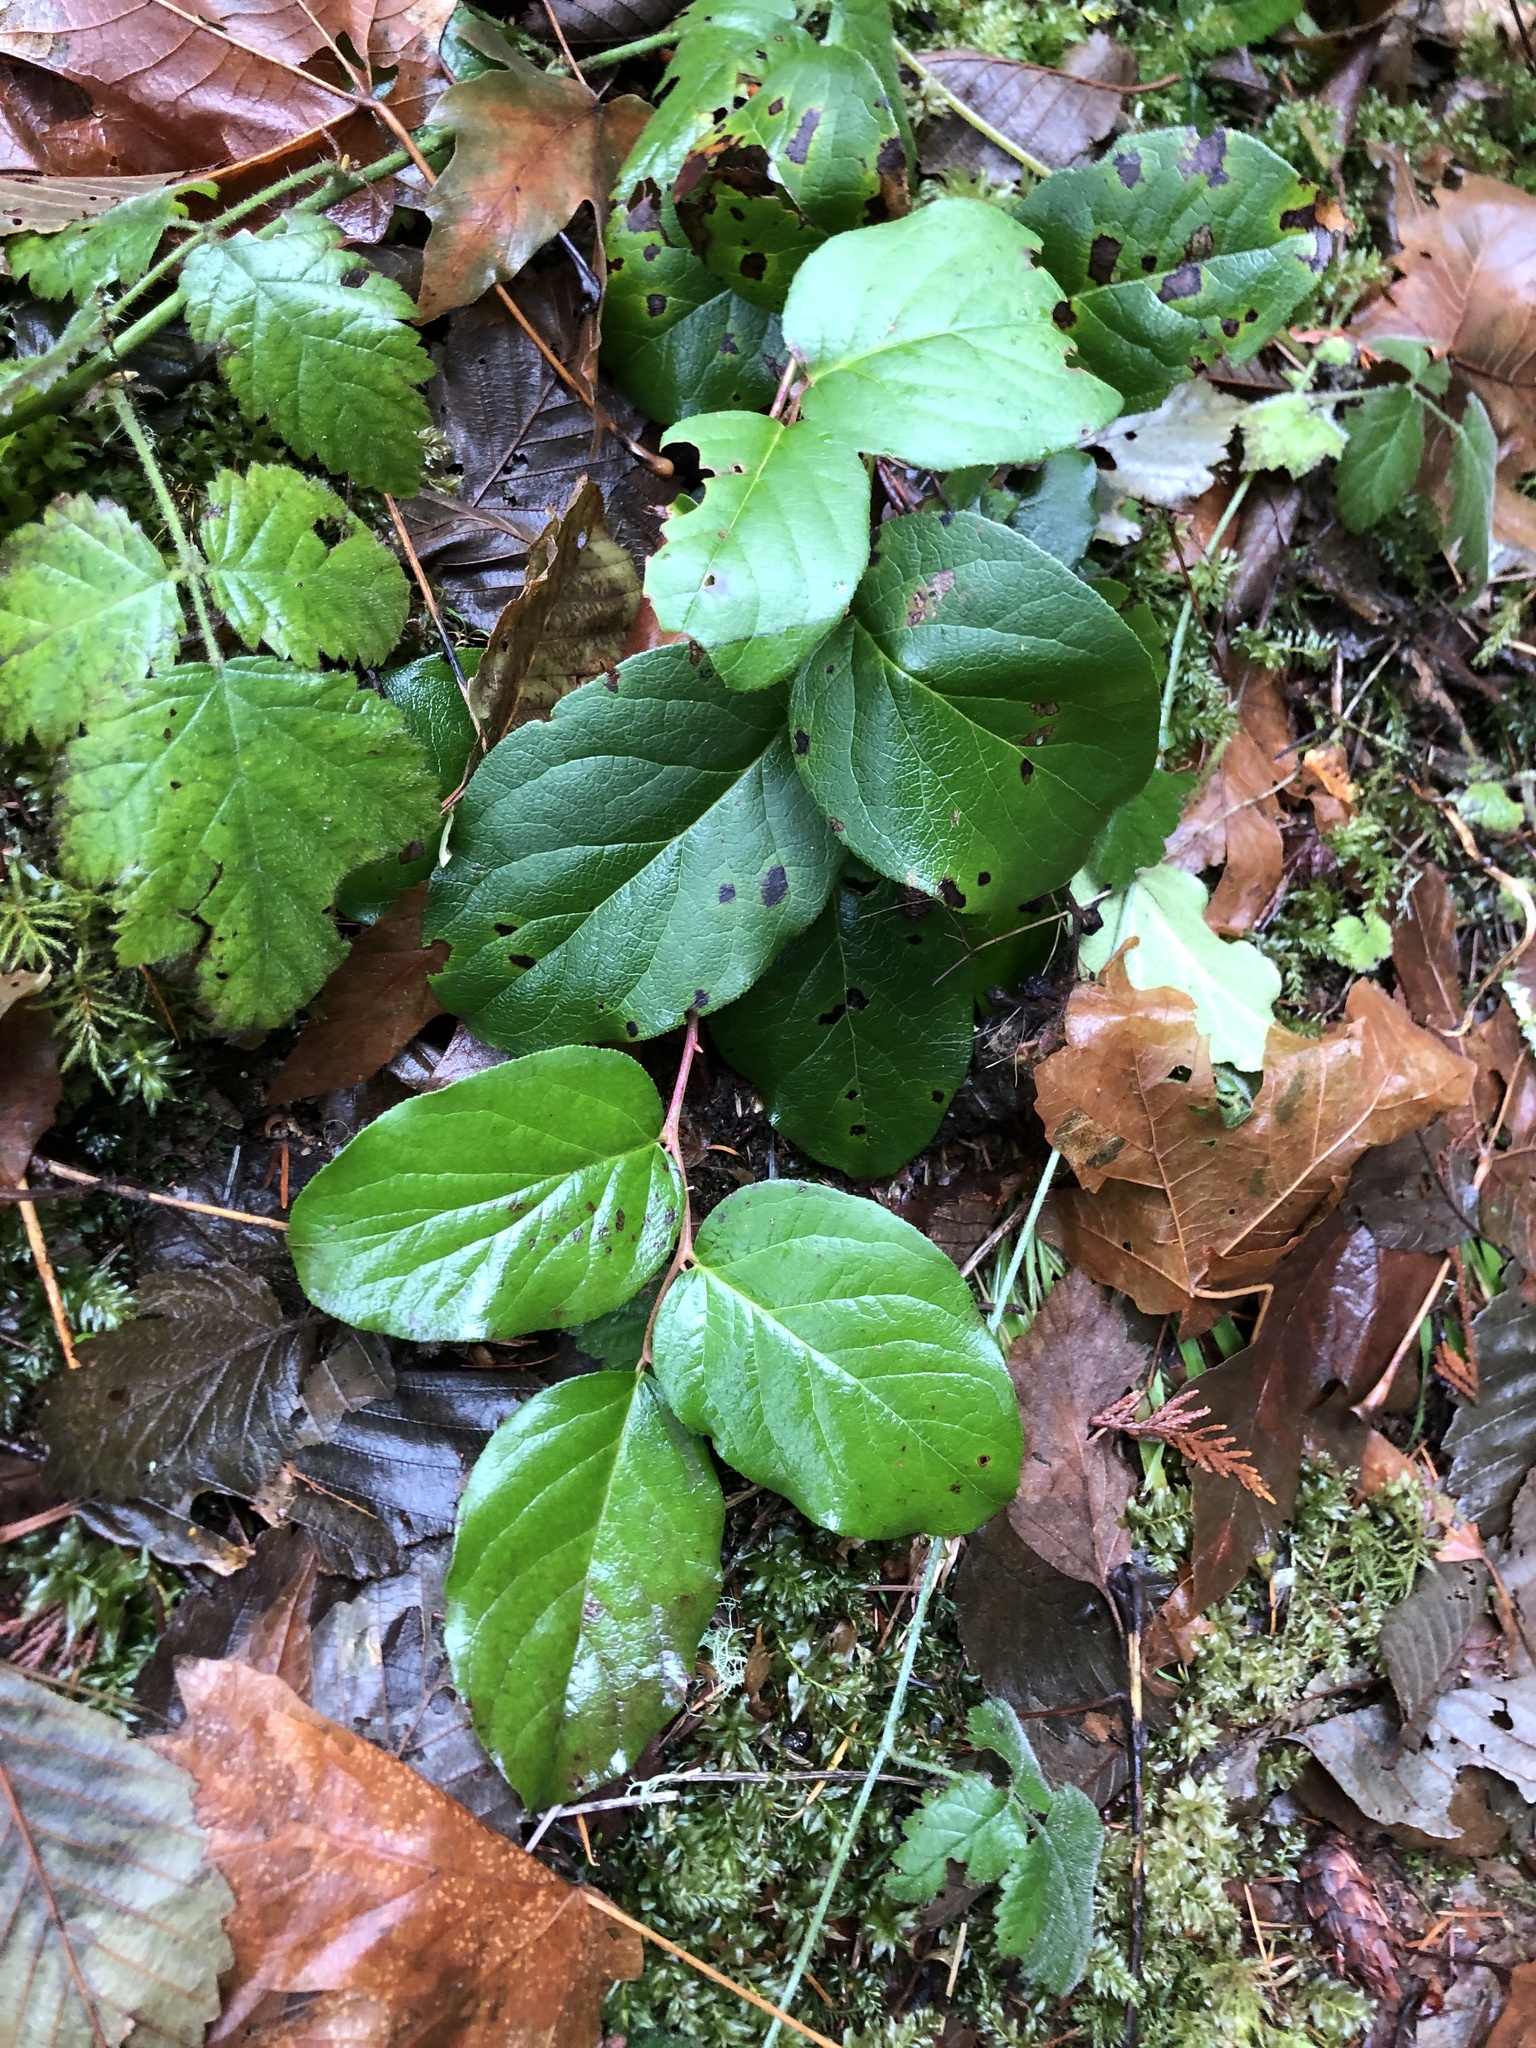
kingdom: Plantae
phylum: Tracheophyta
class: Magnoliopsida
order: Ericales
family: Ericaceae
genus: Gaultheria
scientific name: Gaultheria shallon
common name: Shallon
